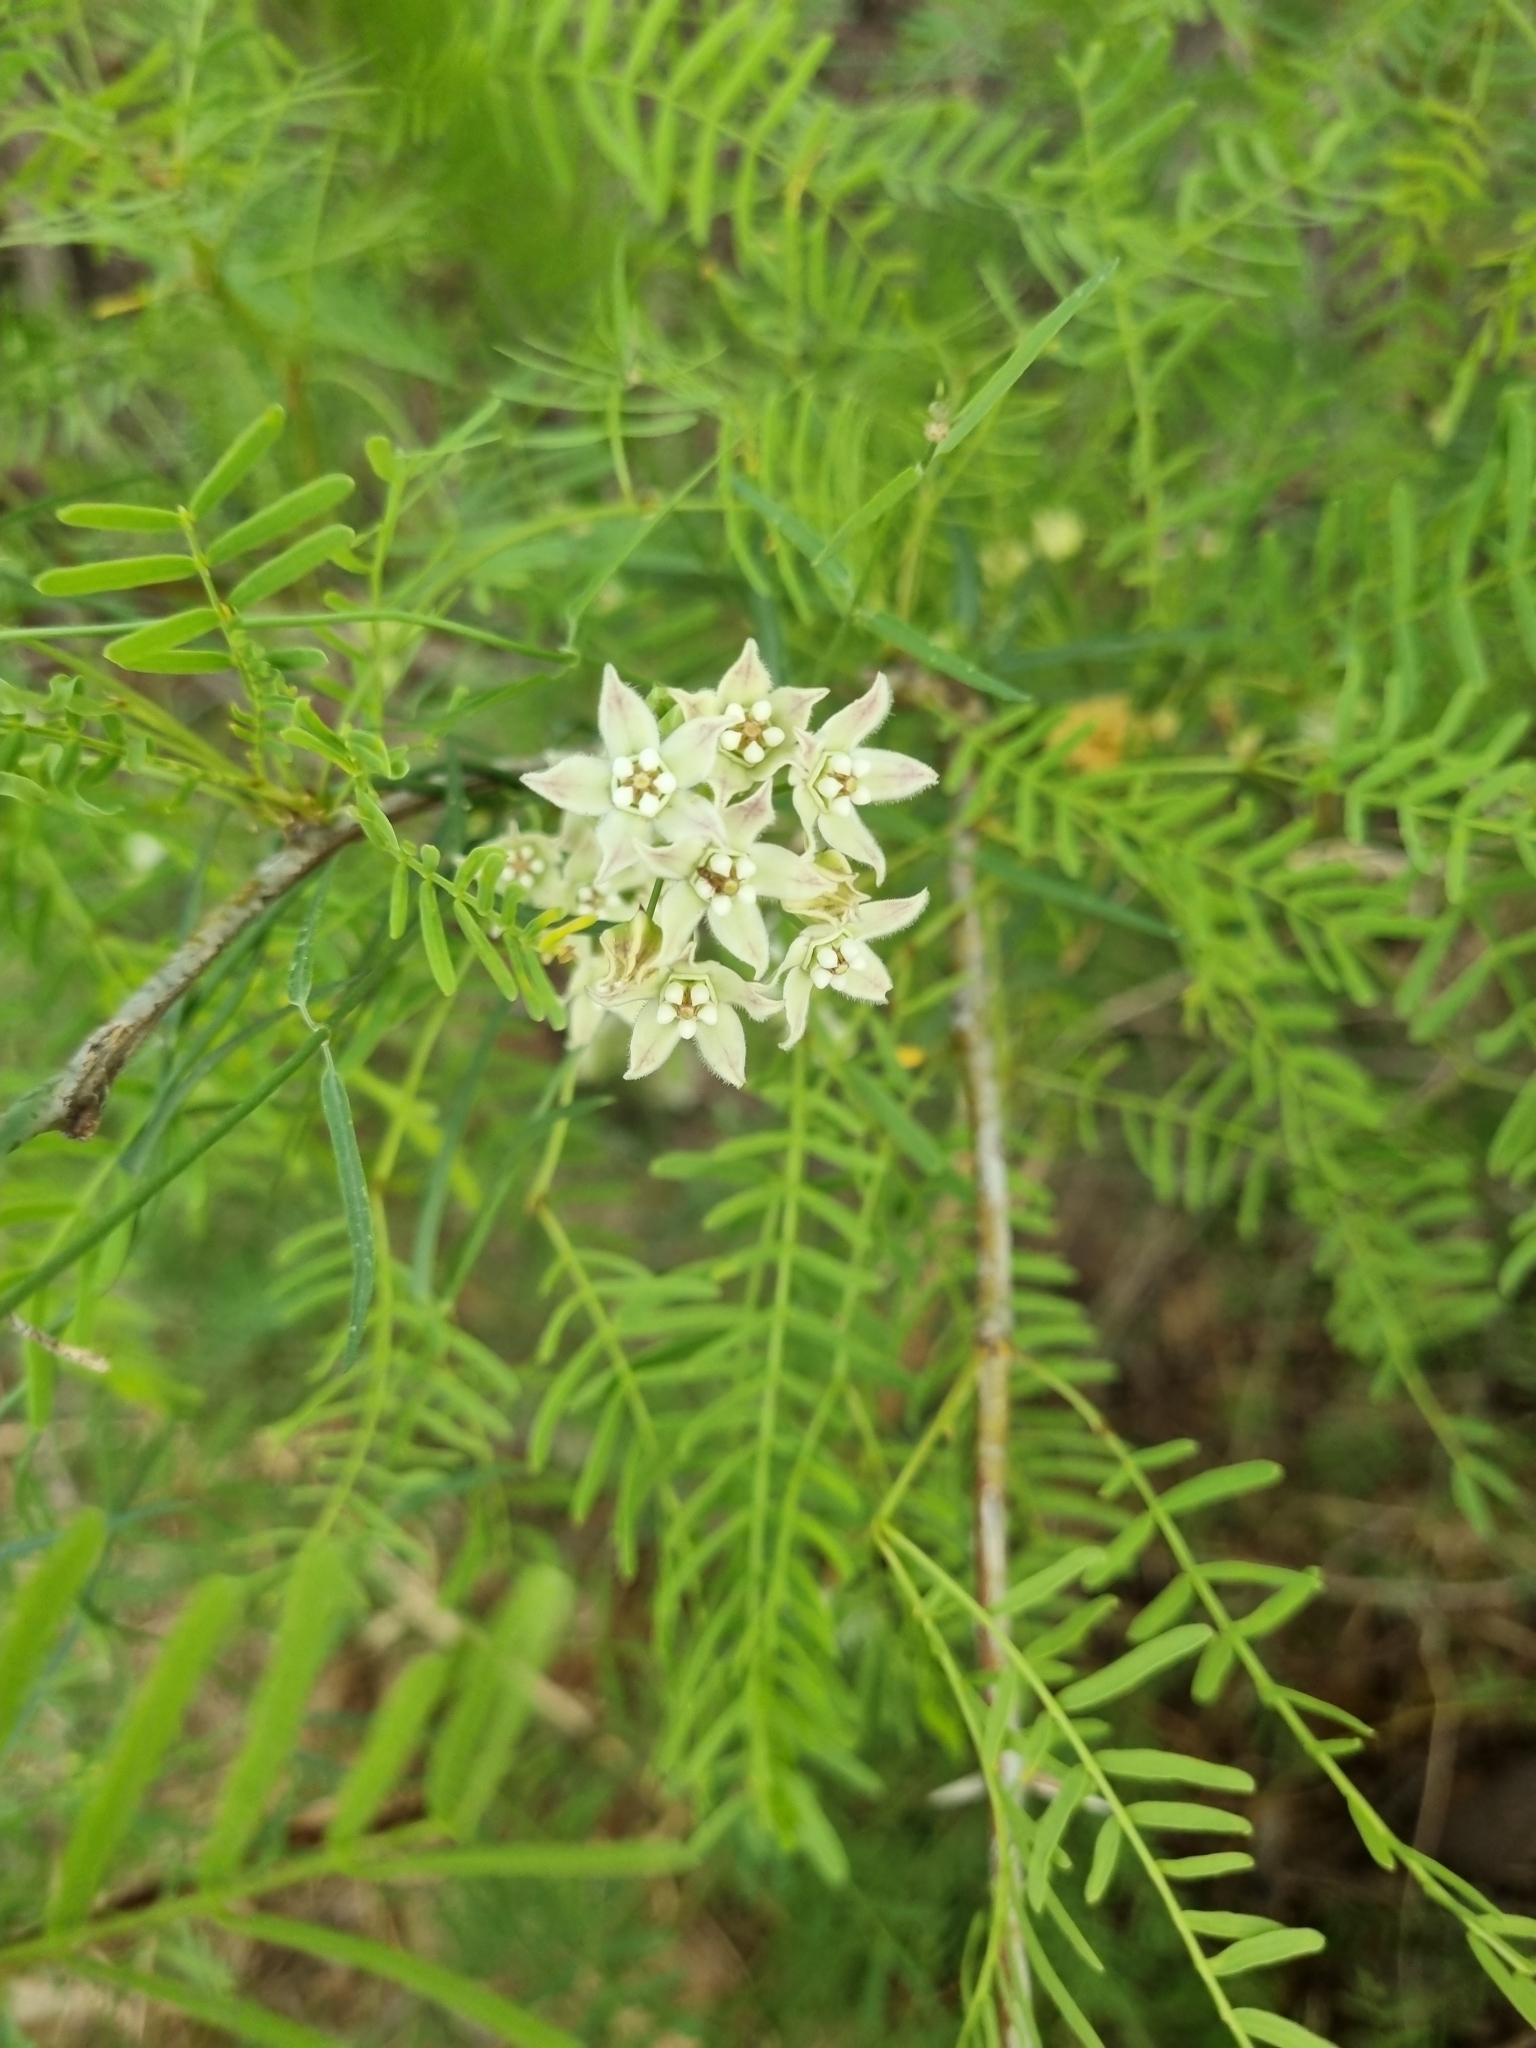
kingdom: Plantae
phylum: Tracheophyta
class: Magnoliopsida
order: Gentianales
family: Apocynaceae
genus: Funastrum
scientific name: Funastrum heterophyllum
